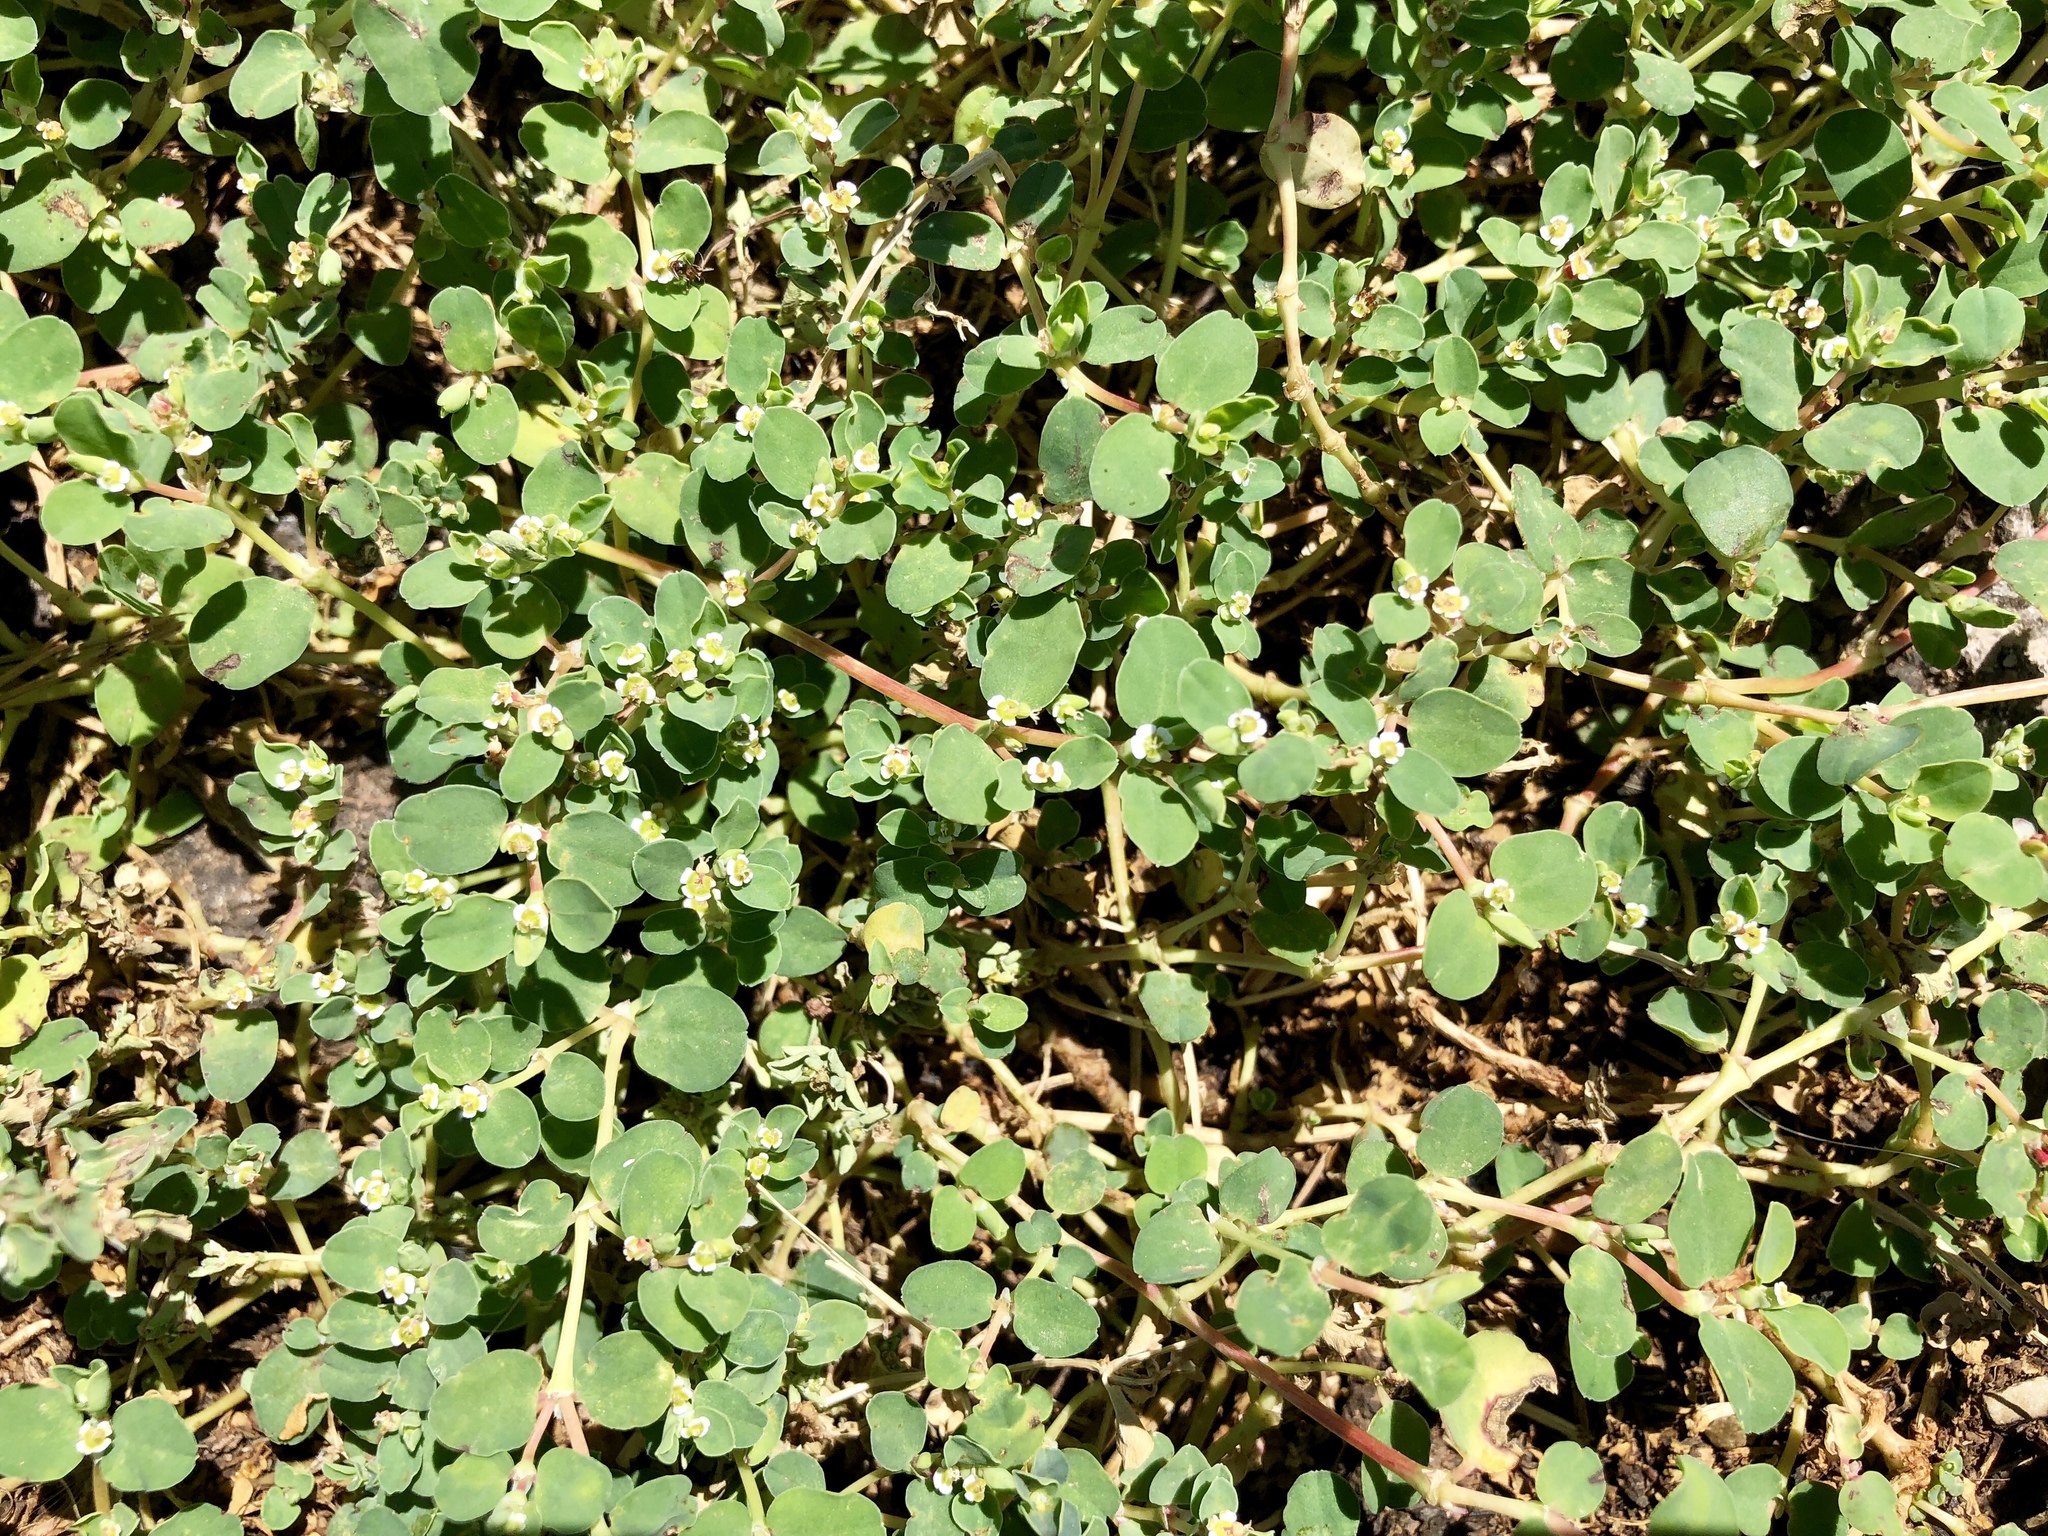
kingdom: Plantae
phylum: Tracheophyta
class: Magnoliopsida
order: Malpighiales
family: Euphorbiaceae
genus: Euphorbia
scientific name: Euphorbia albomarginata
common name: Whitemargin sandmat
